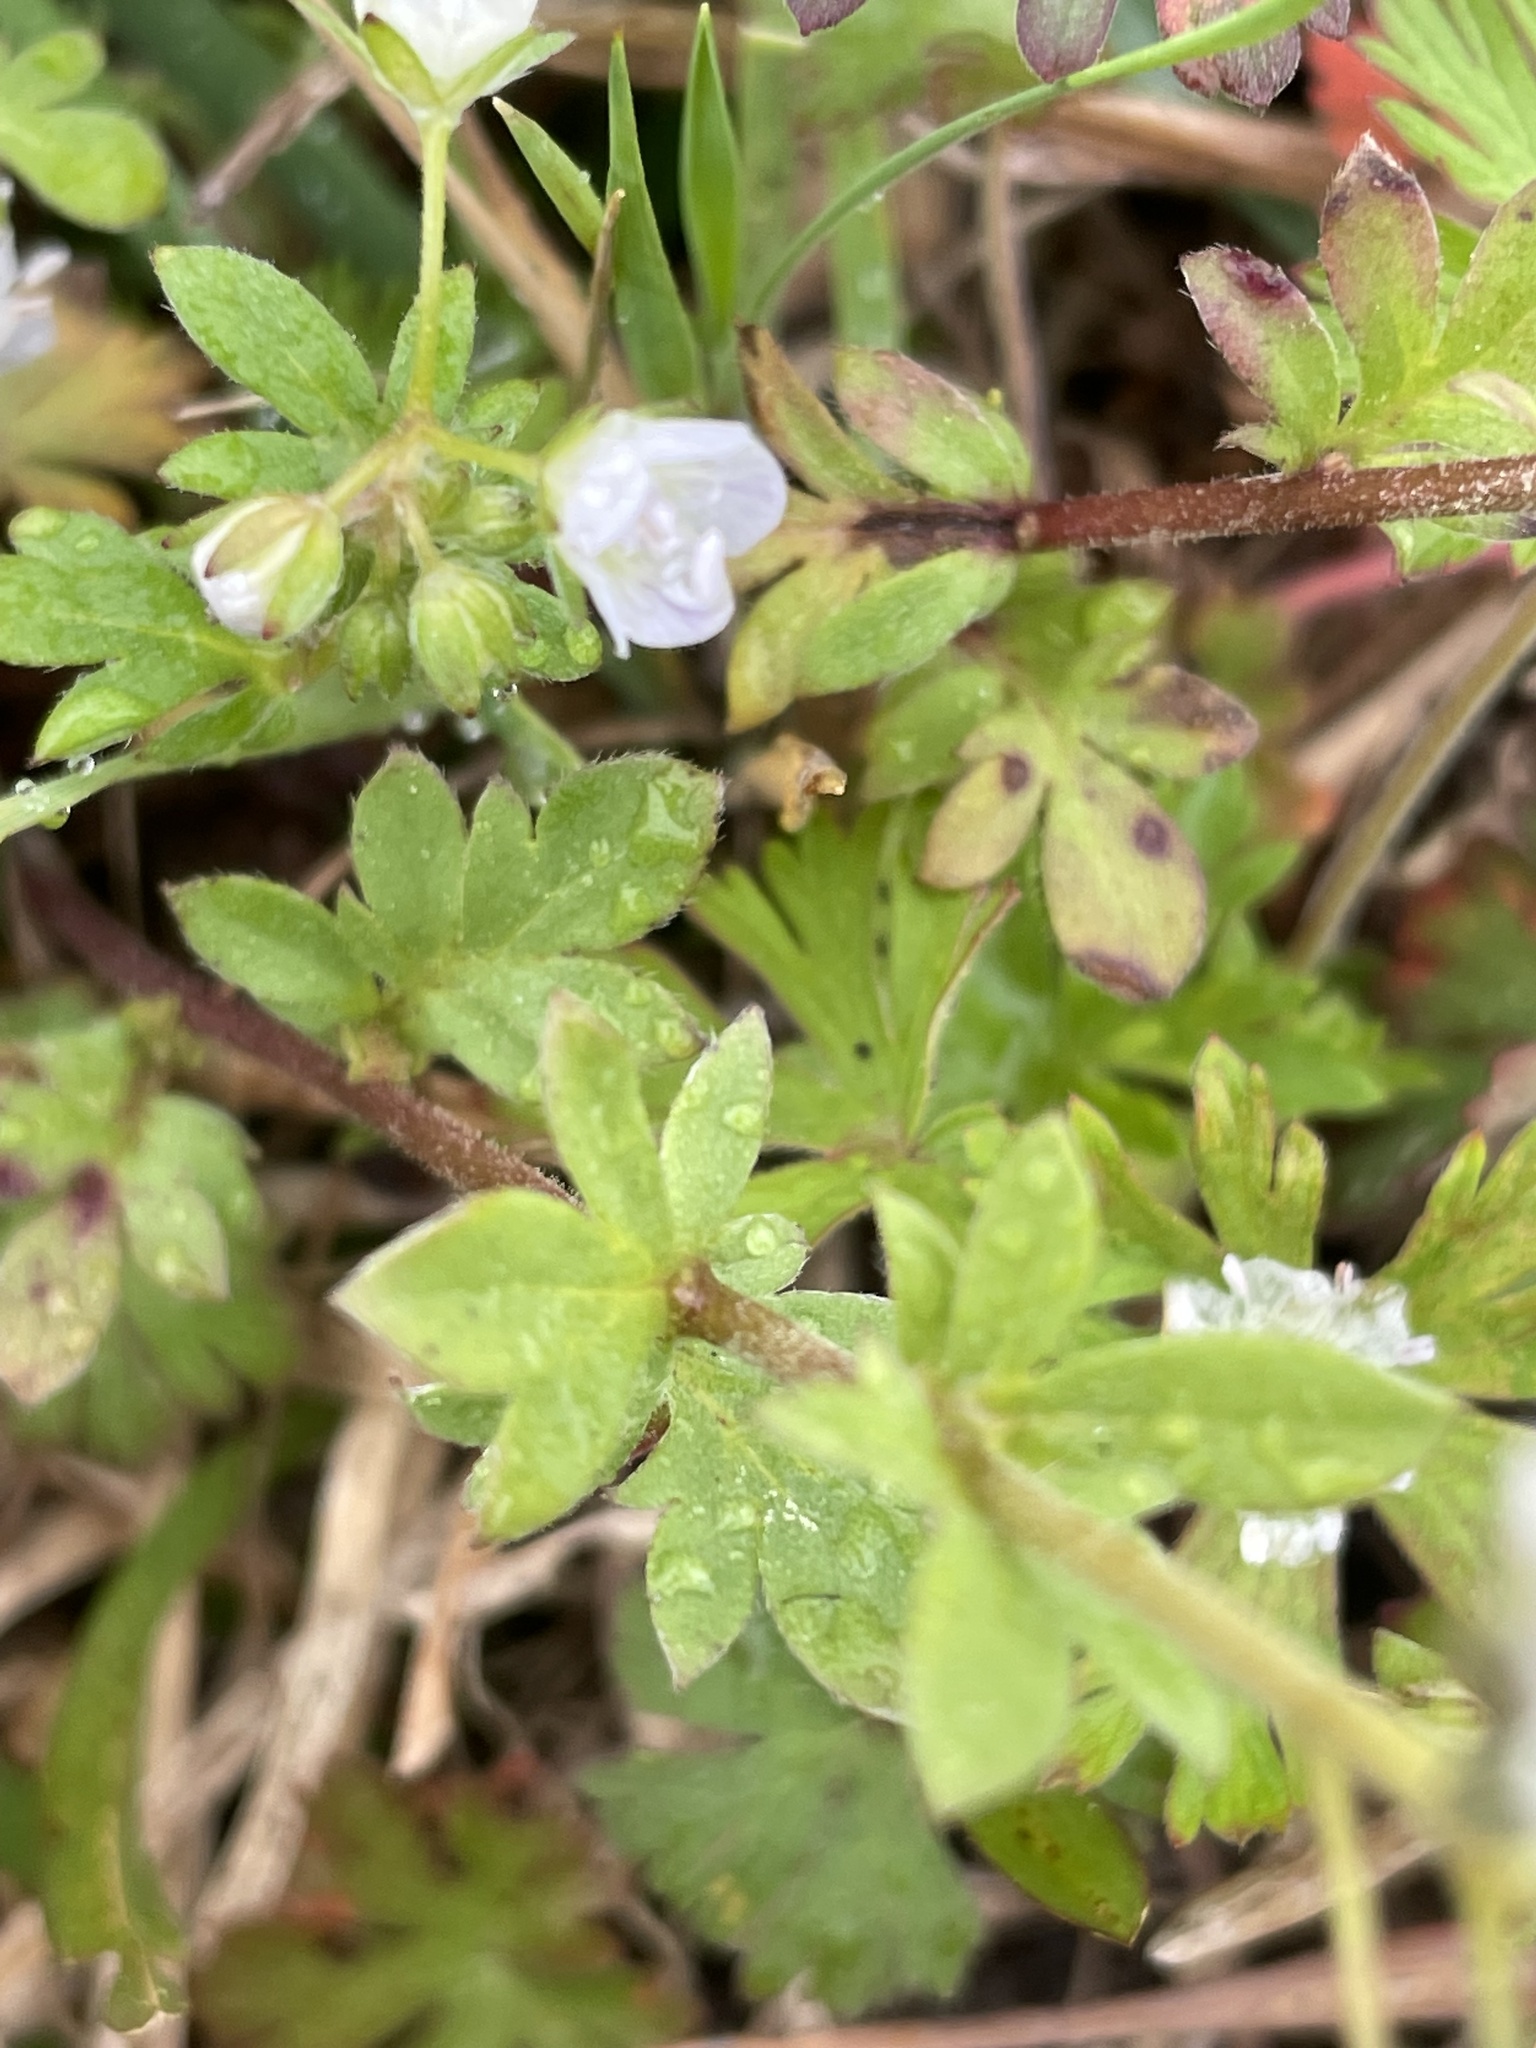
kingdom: Plantae
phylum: Tracheophyta
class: Magnoliopsida
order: Boraginales
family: Hydrophyllaceae
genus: Phacelia
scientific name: Phacelia dubia
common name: Appalachian phacelia
